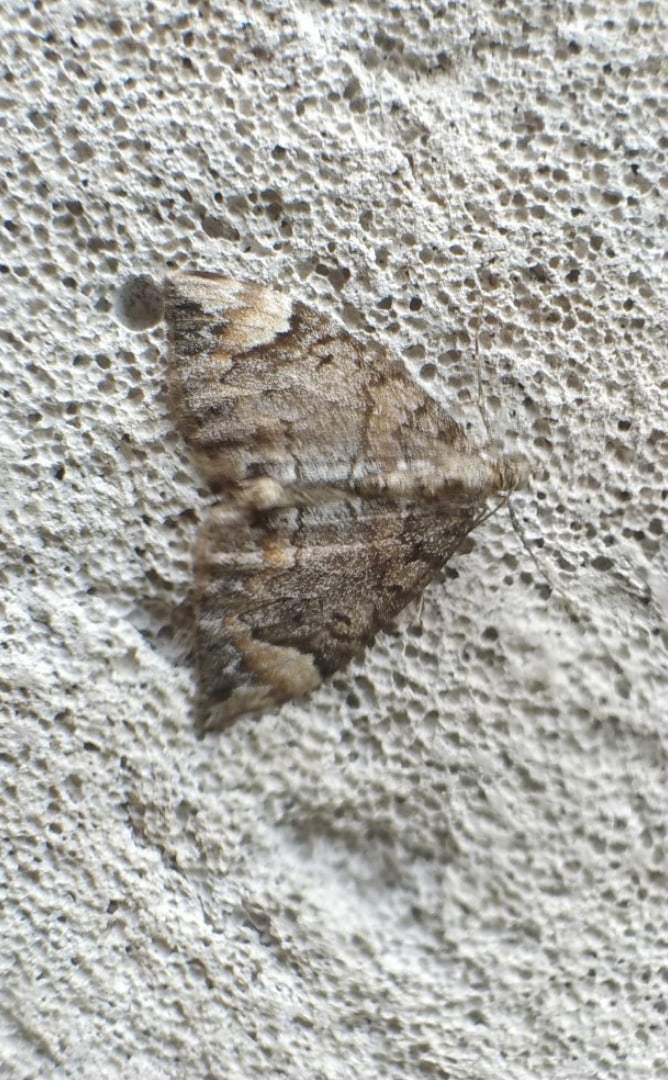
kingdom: Animalia
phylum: Arthropoda
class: Insecta
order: Lepidoptera
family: Geometridae
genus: Dysstroma
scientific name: Dysstroma citrata
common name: Dark marbled carpet
